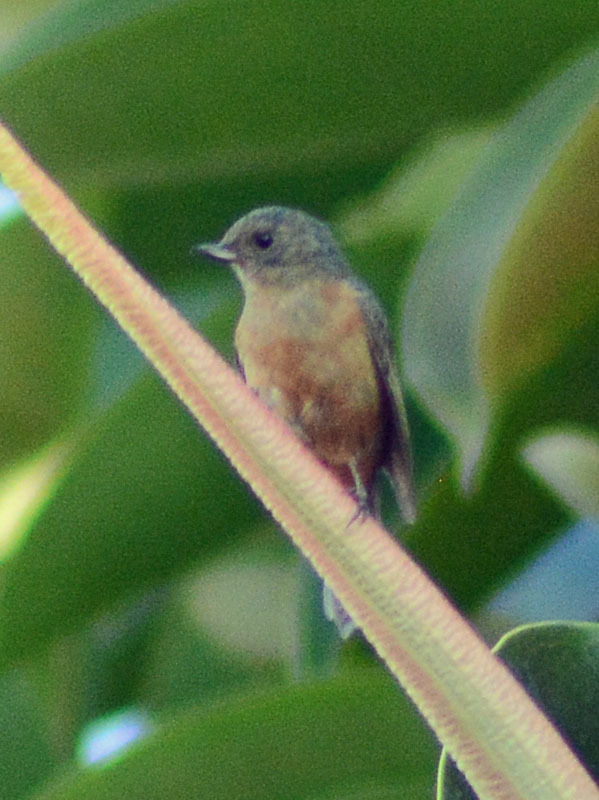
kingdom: Animalia
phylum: Chordata
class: Aves
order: Passeriformes
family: Thraupidae
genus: Diglossa
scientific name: Diglossa baritula
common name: Cinnamon-bellied flowerpiercer
